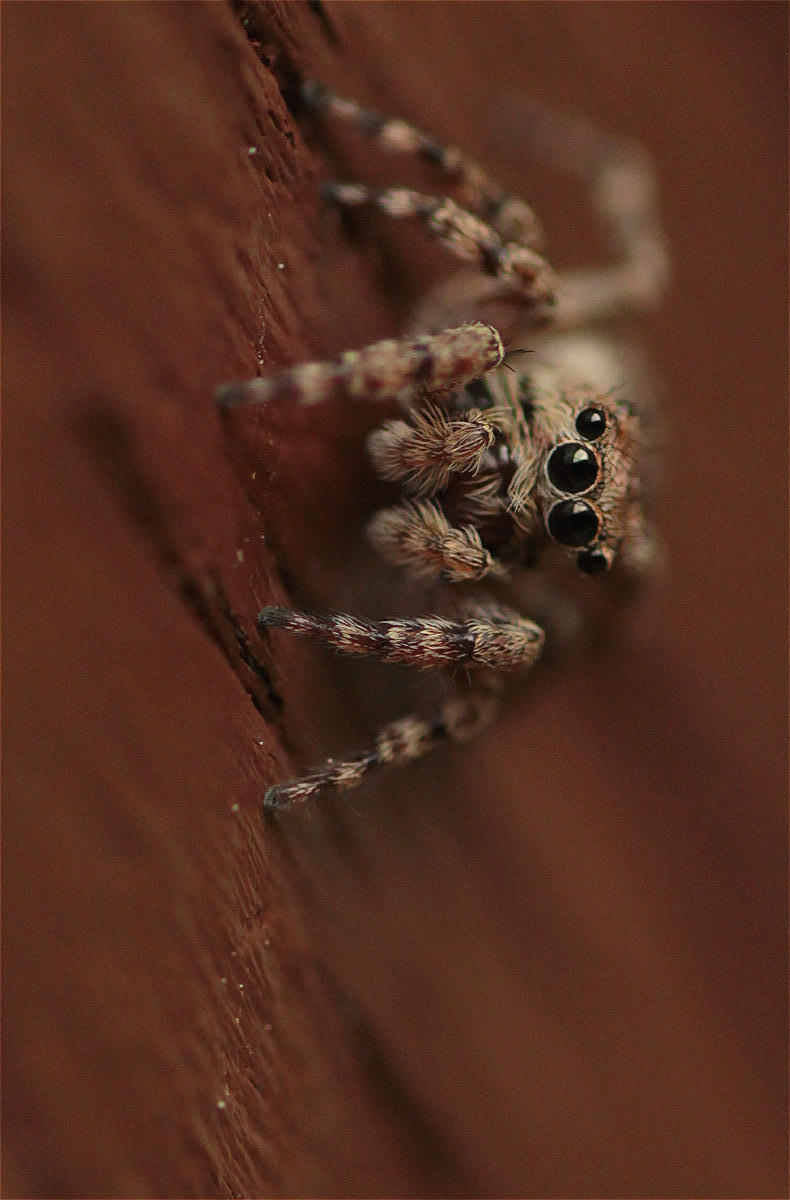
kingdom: Animalia
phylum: Arthropoda
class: Arachnida
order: Araneae
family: Salticidae
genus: Attulus
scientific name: Attulus pubescens
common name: Jumping spider
